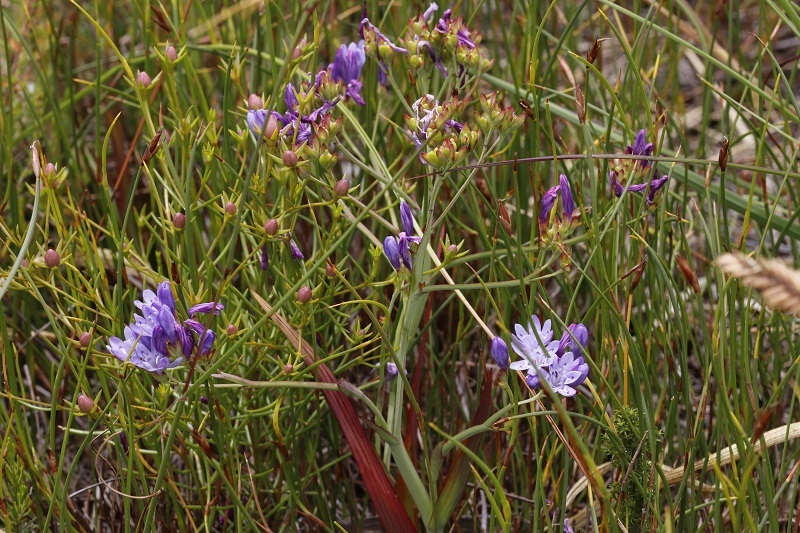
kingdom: Plantae
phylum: Tracheophyta
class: Liliopsida
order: Asparagales
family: Iridaceae
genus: Codonorhiza
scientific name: Codonorhiza corymbosa
